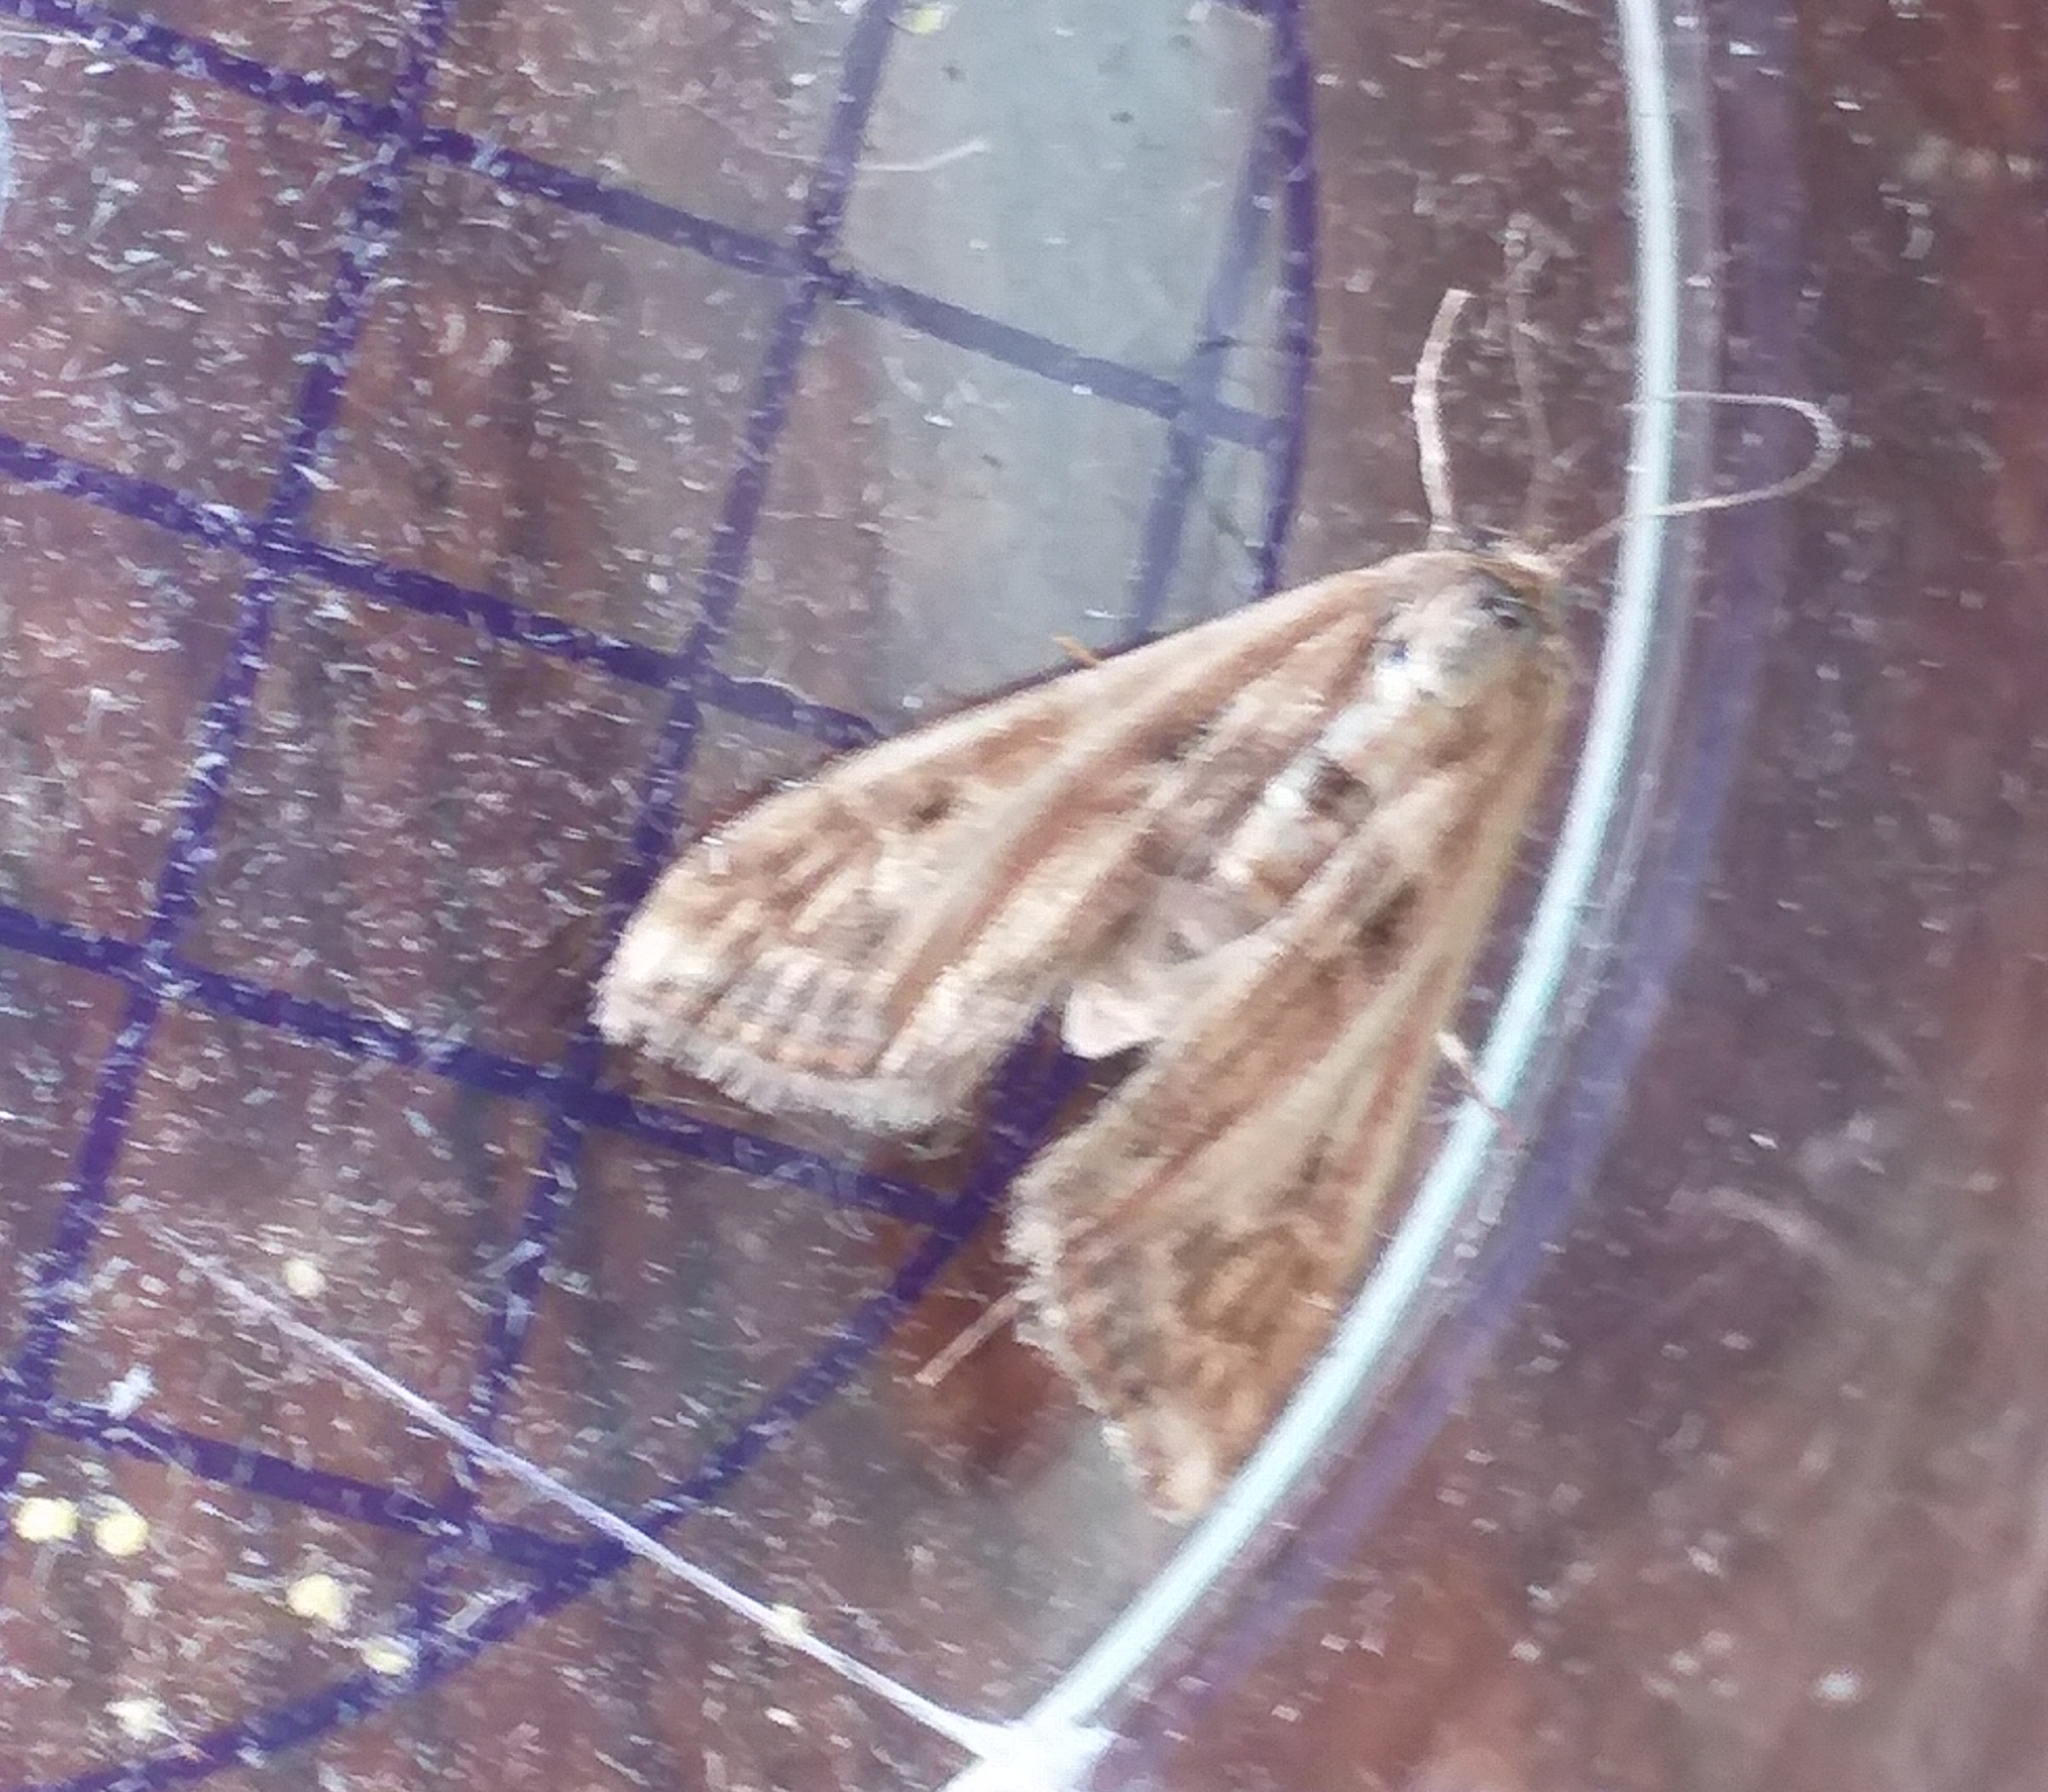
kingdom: Animalia
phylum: Arthropoda
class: Insecta
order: Lepidoptera
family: Crambidae
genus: Cataclysta
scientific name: Cataclysta lemnata
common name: Small china-mark
